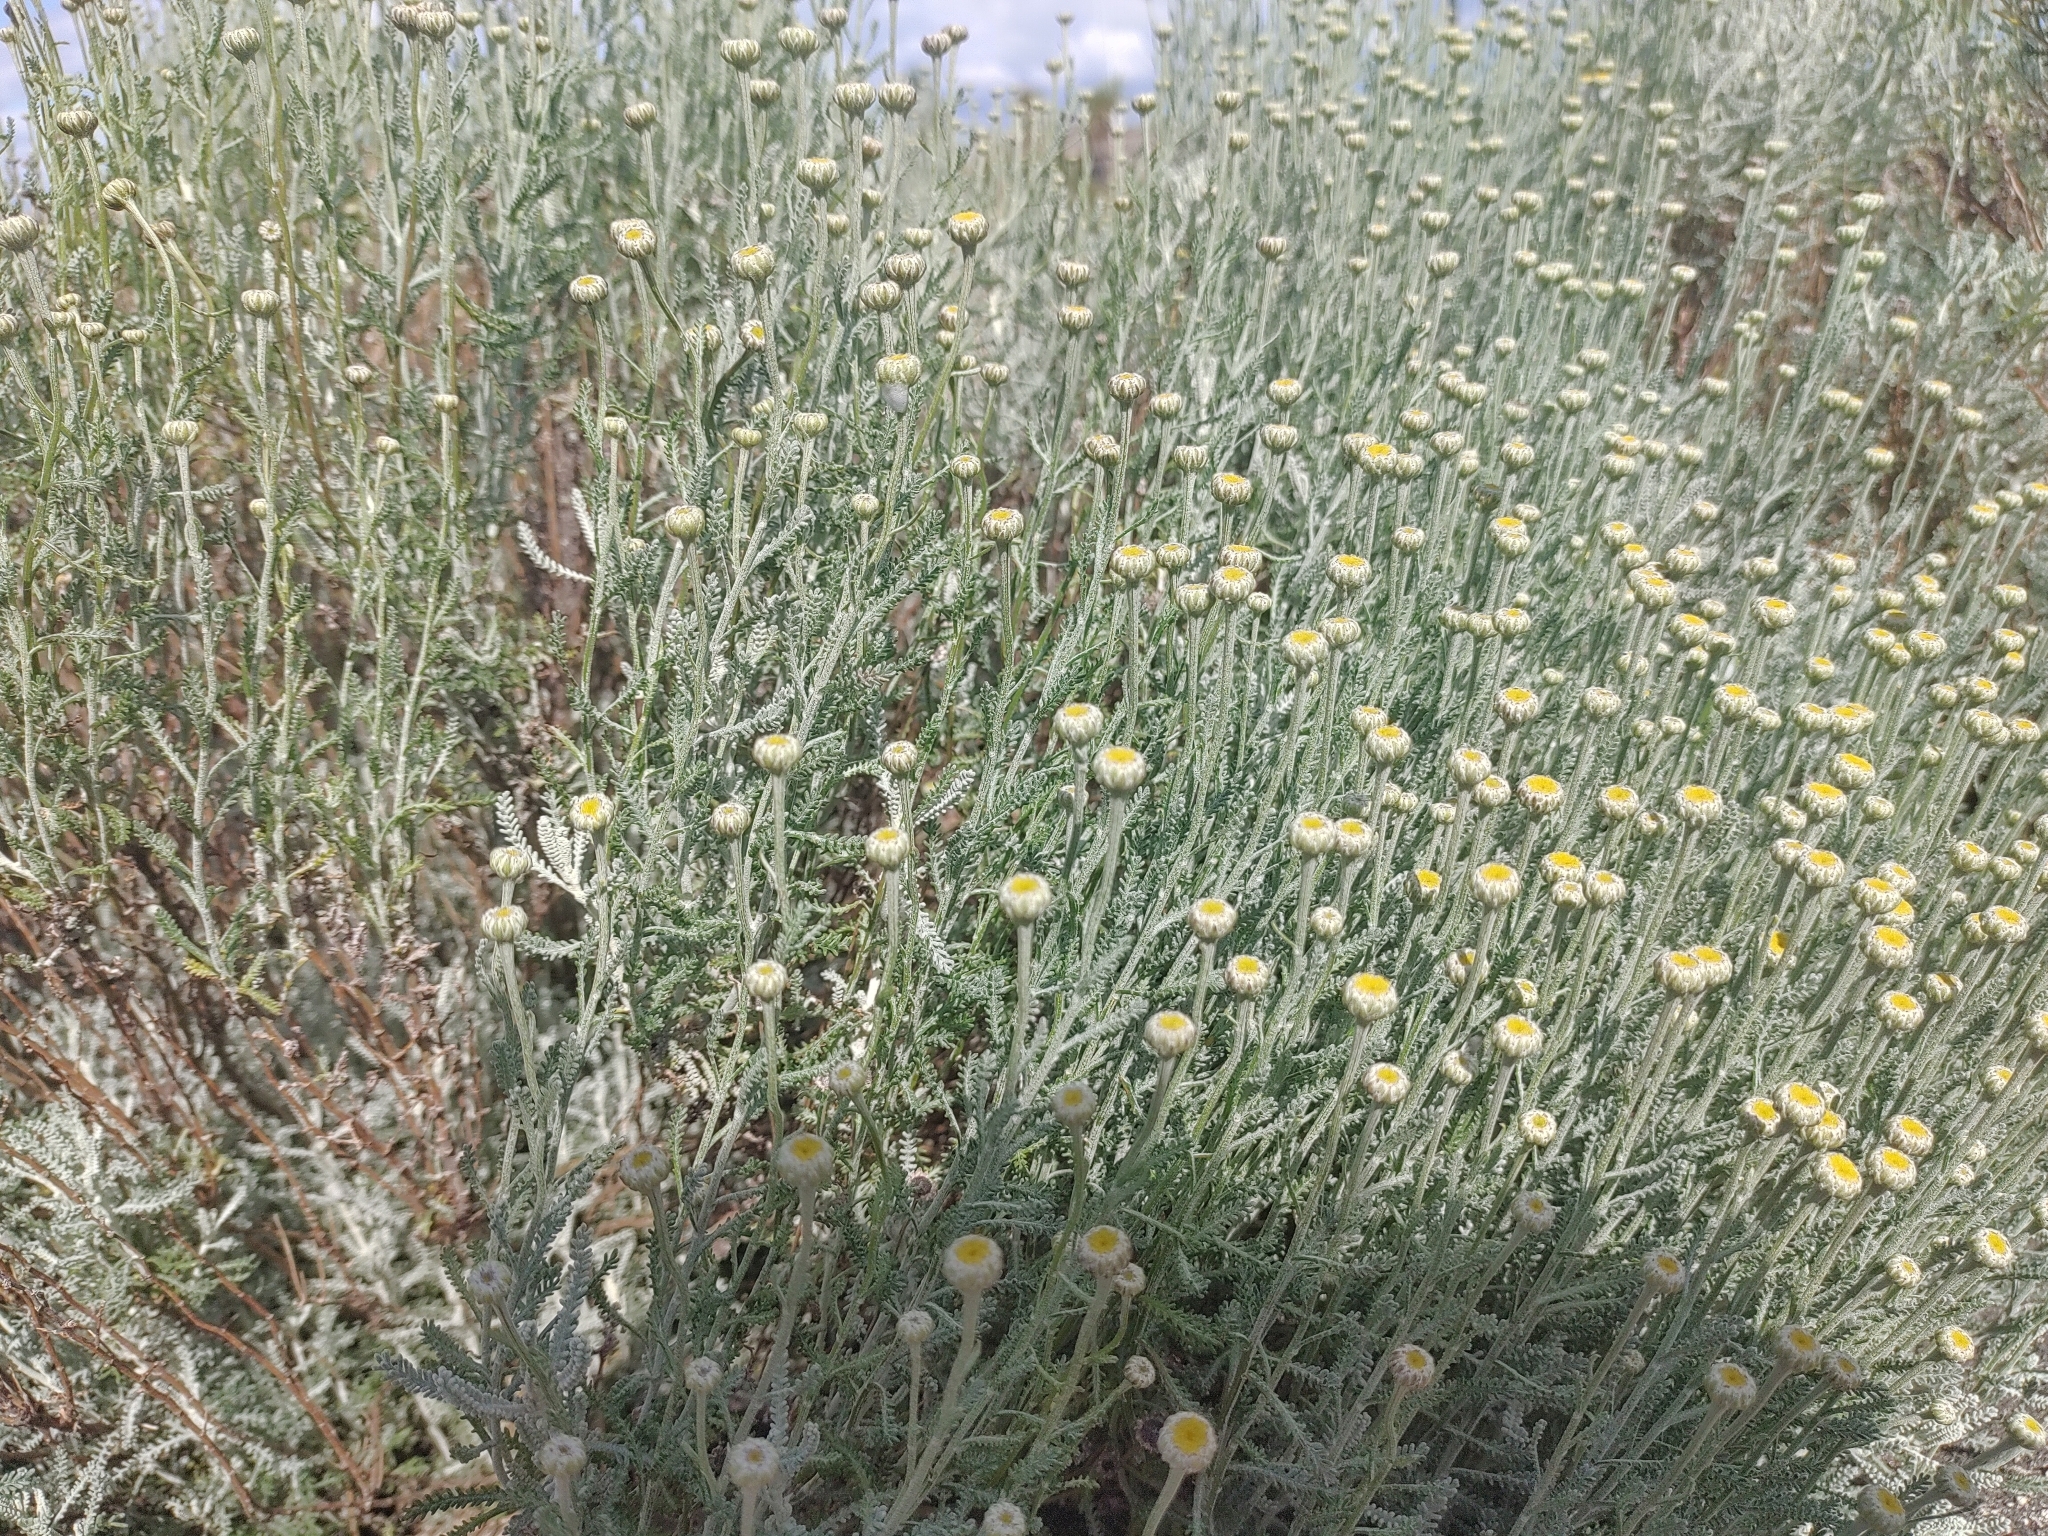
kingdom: Plantae
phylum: Tracheophyta
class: Magnoliopsida
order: Asterales
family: Asteraceae
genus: Santolina
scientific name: Santolina chamaecyparissus
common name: Lavender-cotton
